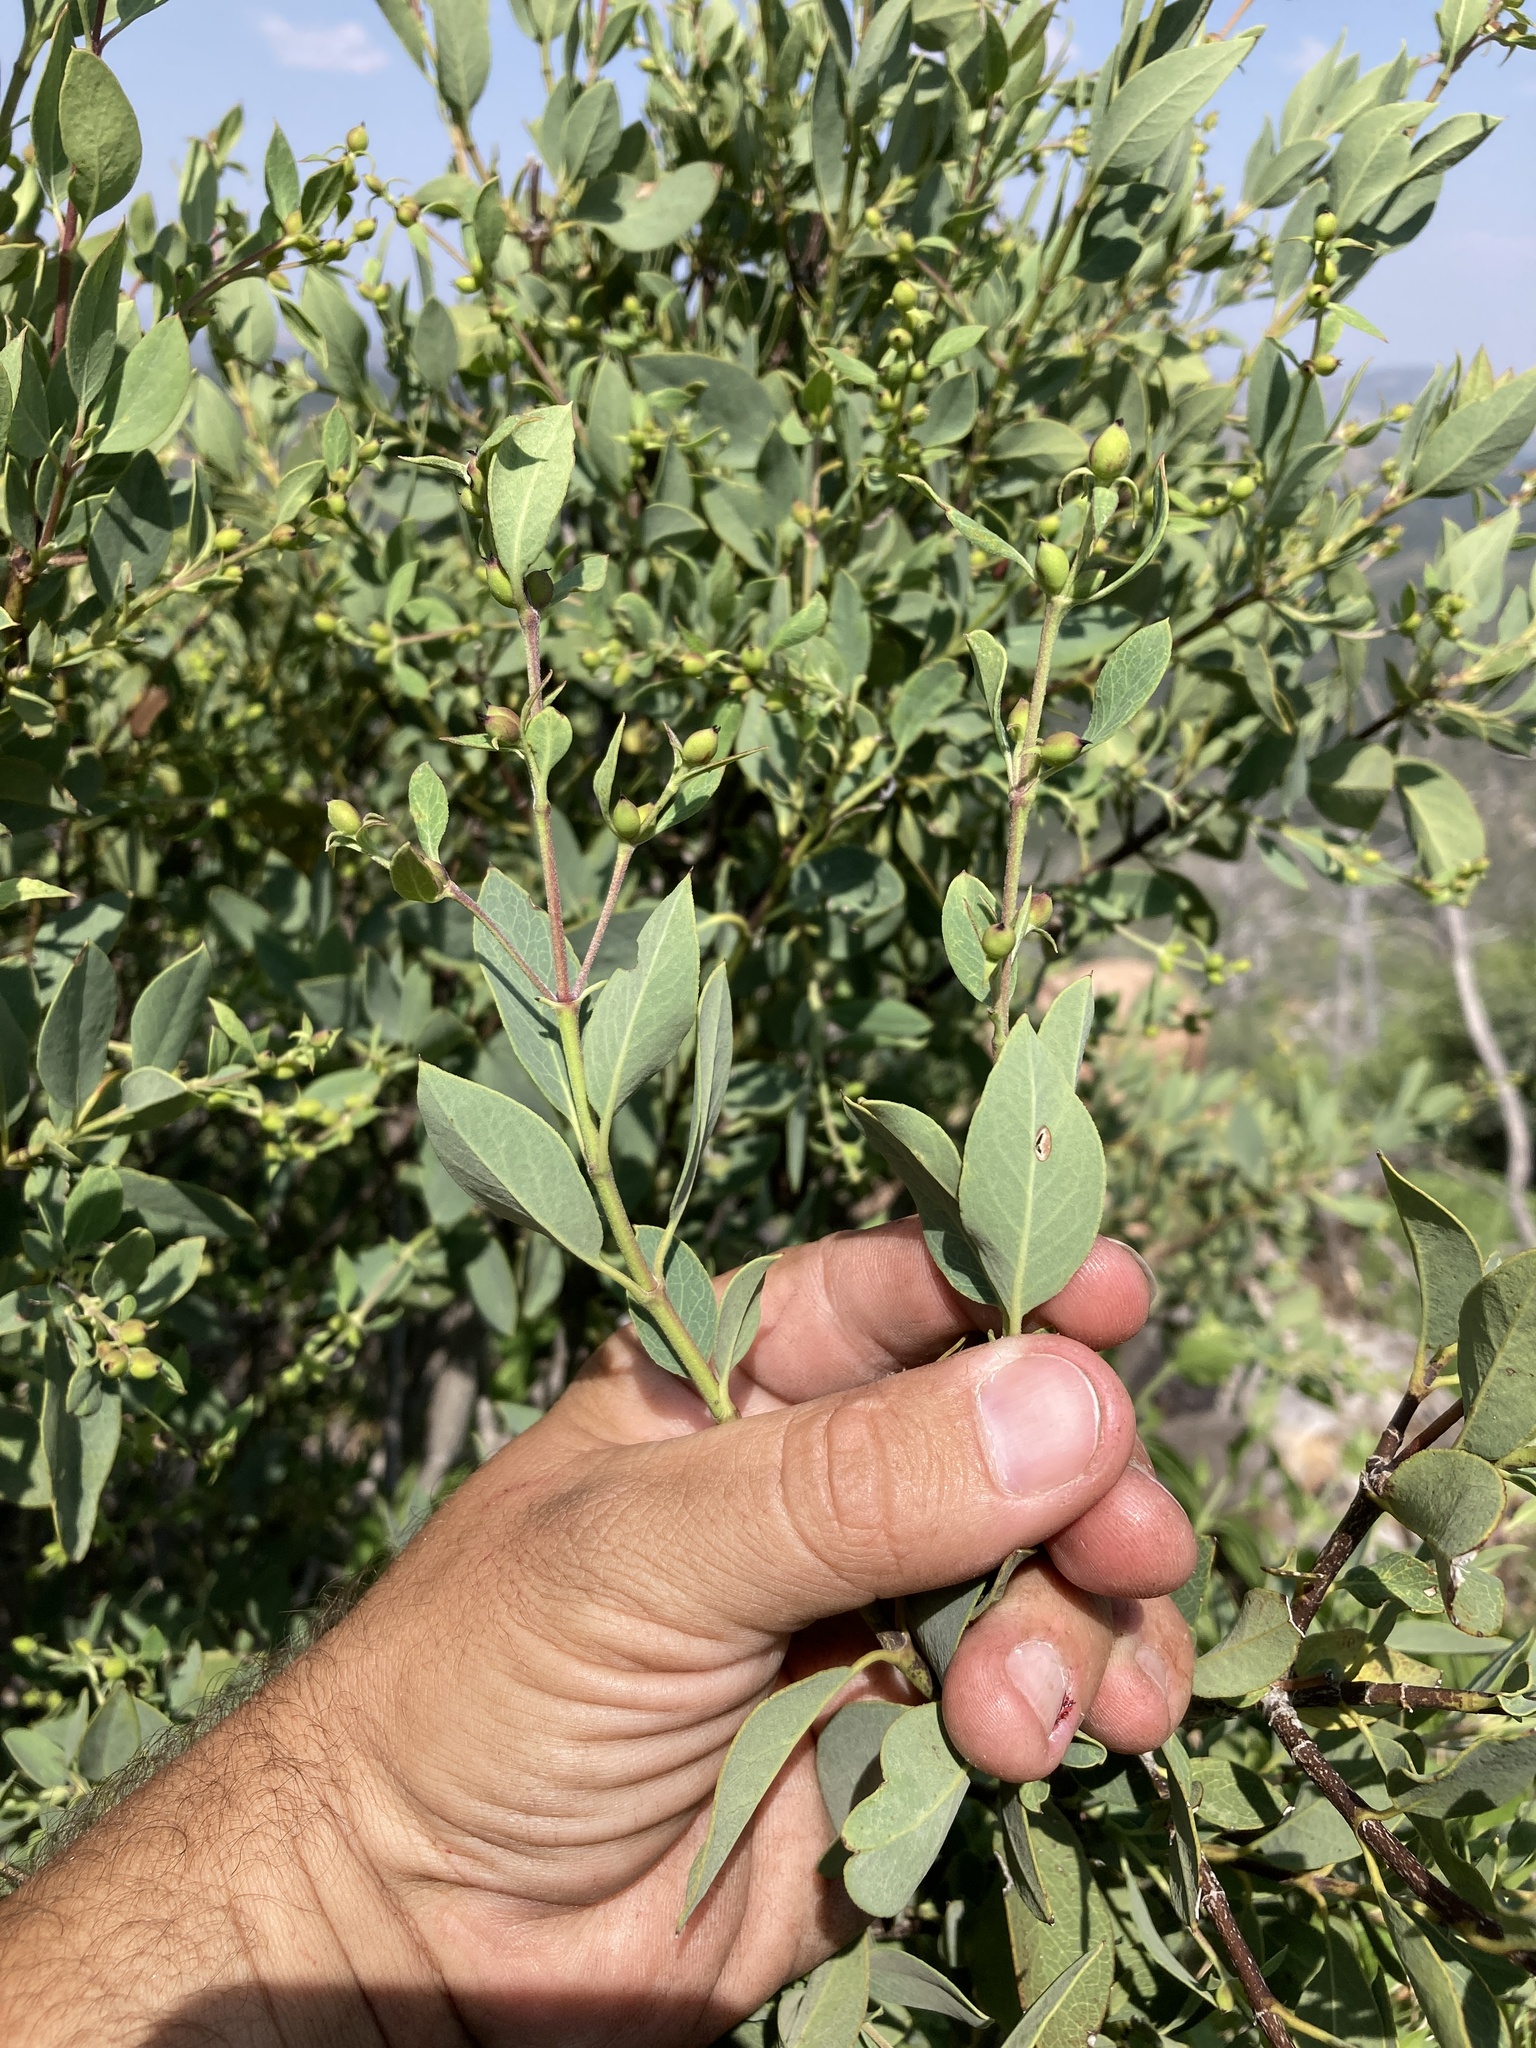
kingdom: Plantae
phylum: Tracheophyta
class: Magnoliopsida
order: Garryales
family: Garryaceae
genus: Garrya
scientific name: Garrya wrightii
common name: Wright's silktassel
